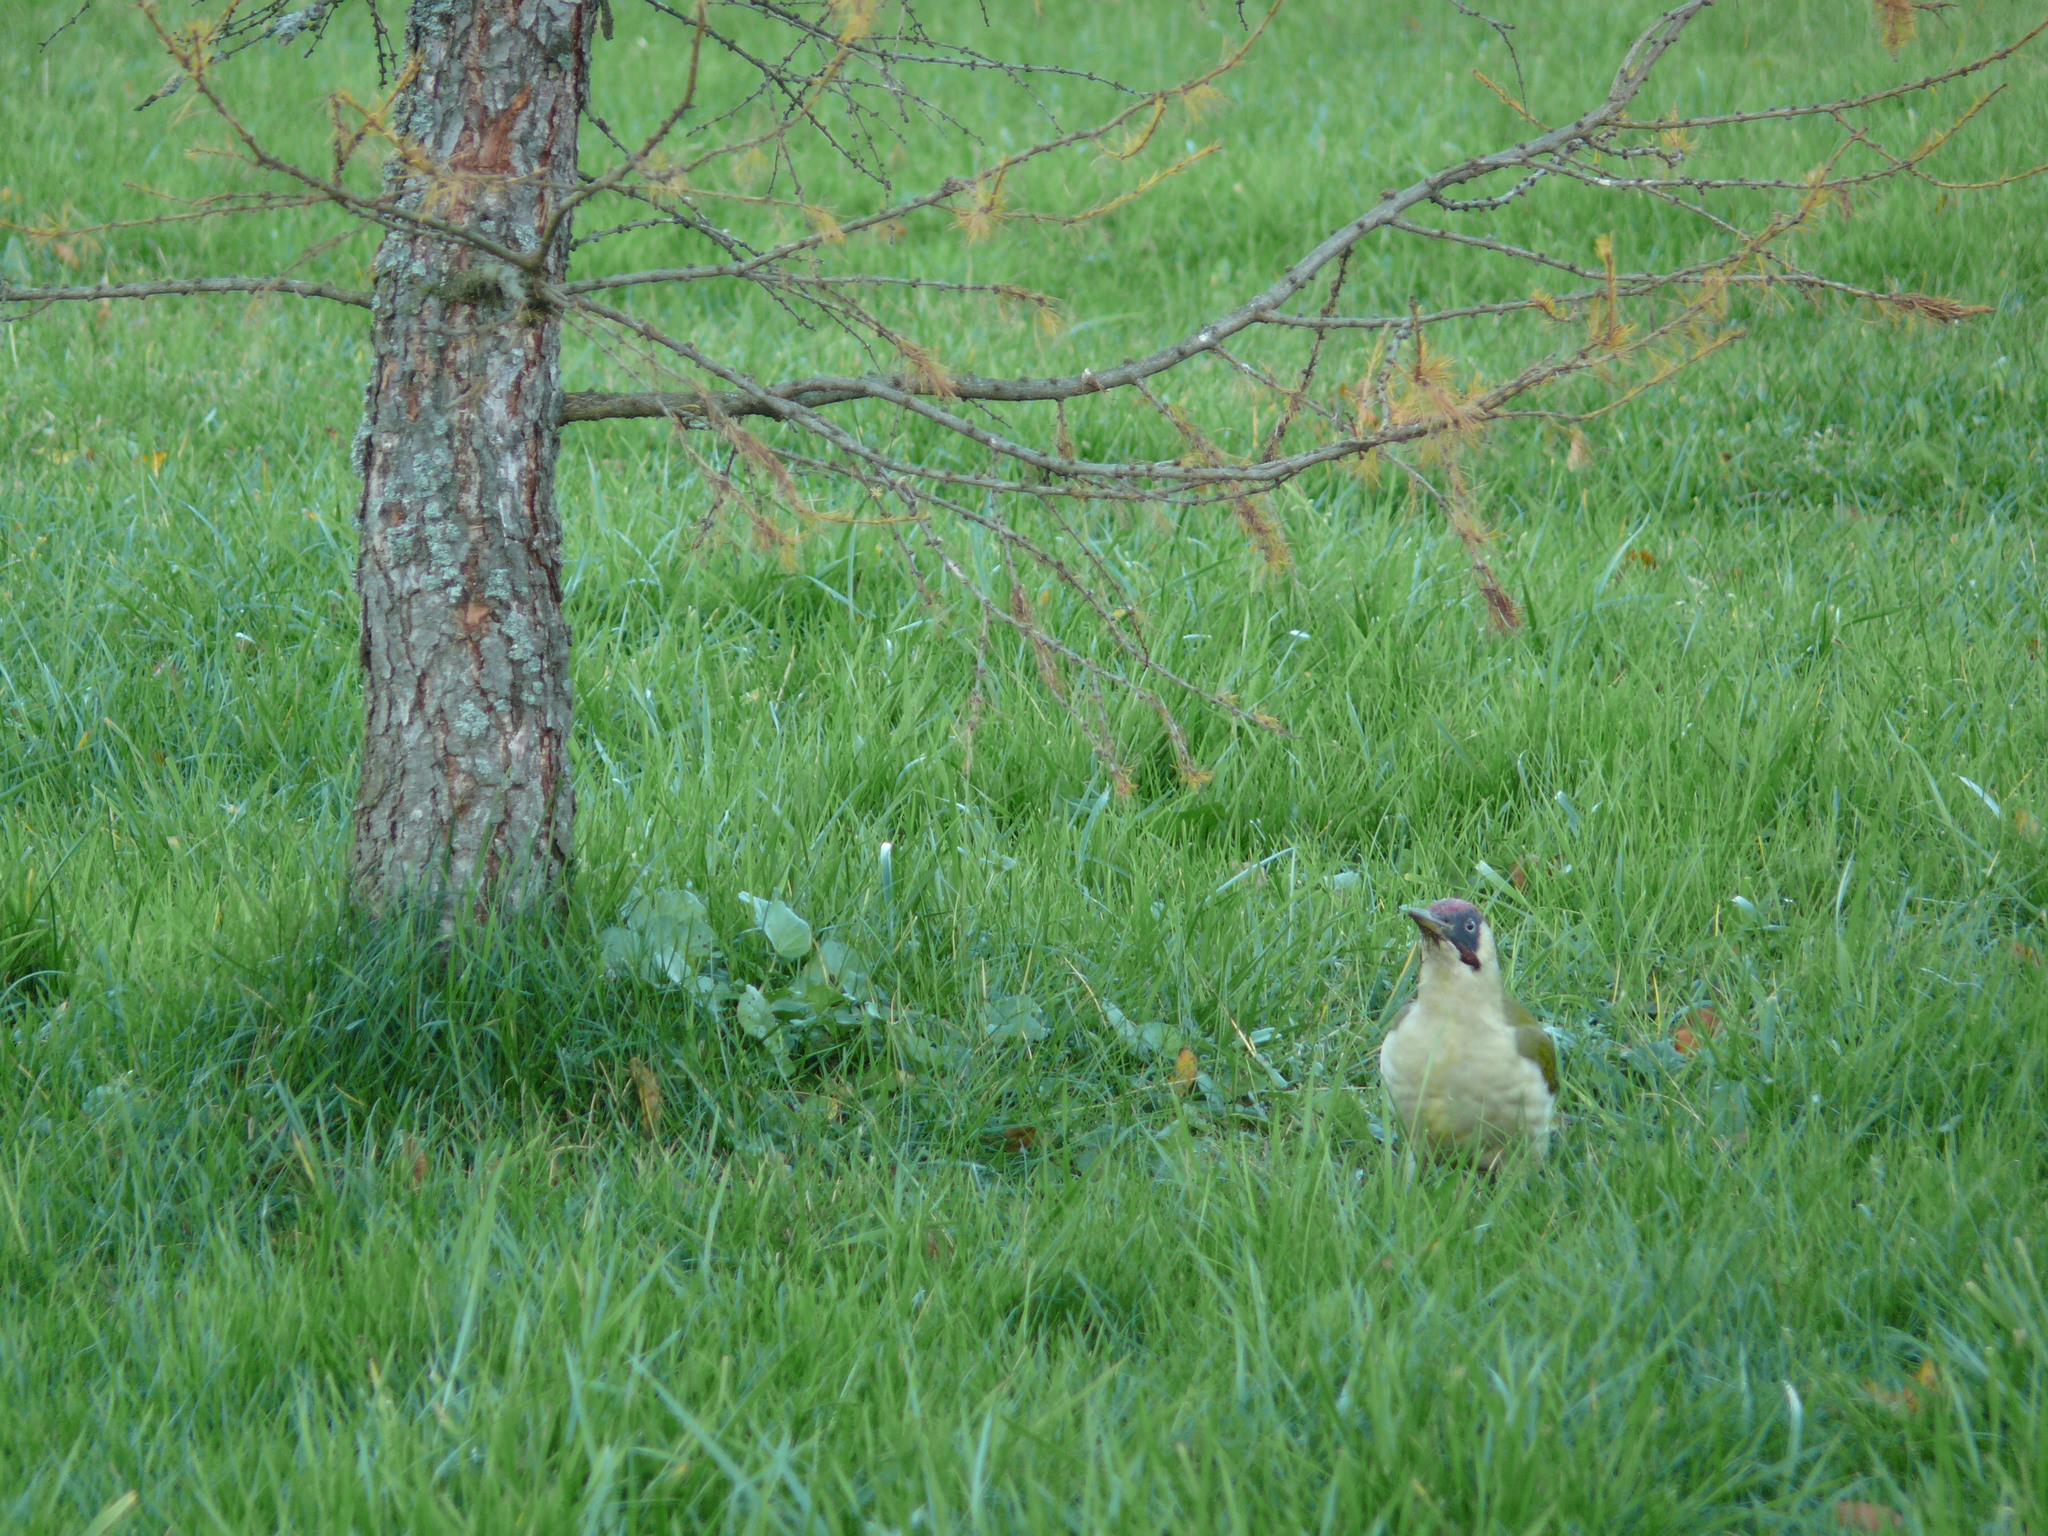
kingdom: Animalia
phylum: Chordata
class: Aves
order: Piciformes
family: Picidae
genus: Picus
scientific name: Picus viridis
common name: European green woodpecker
